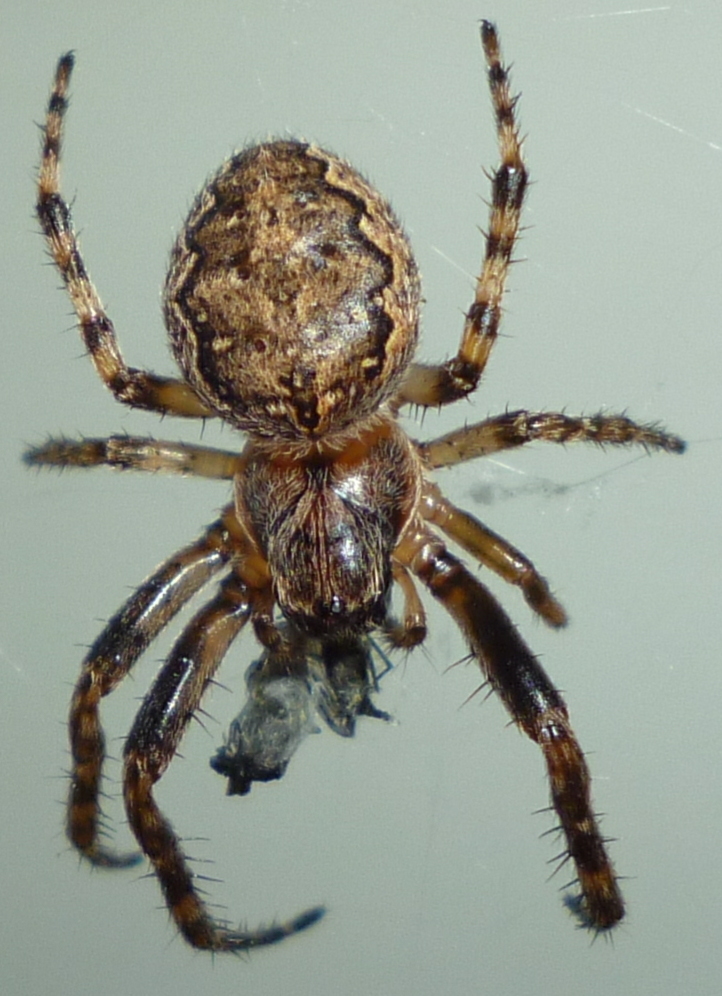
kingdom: Animalia
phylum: Arthropoda
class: Arachnida
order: Araneae
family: Araneidae
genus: Larinioides
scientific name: Larinioides patagiatus
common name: Ornamental orbweaver
